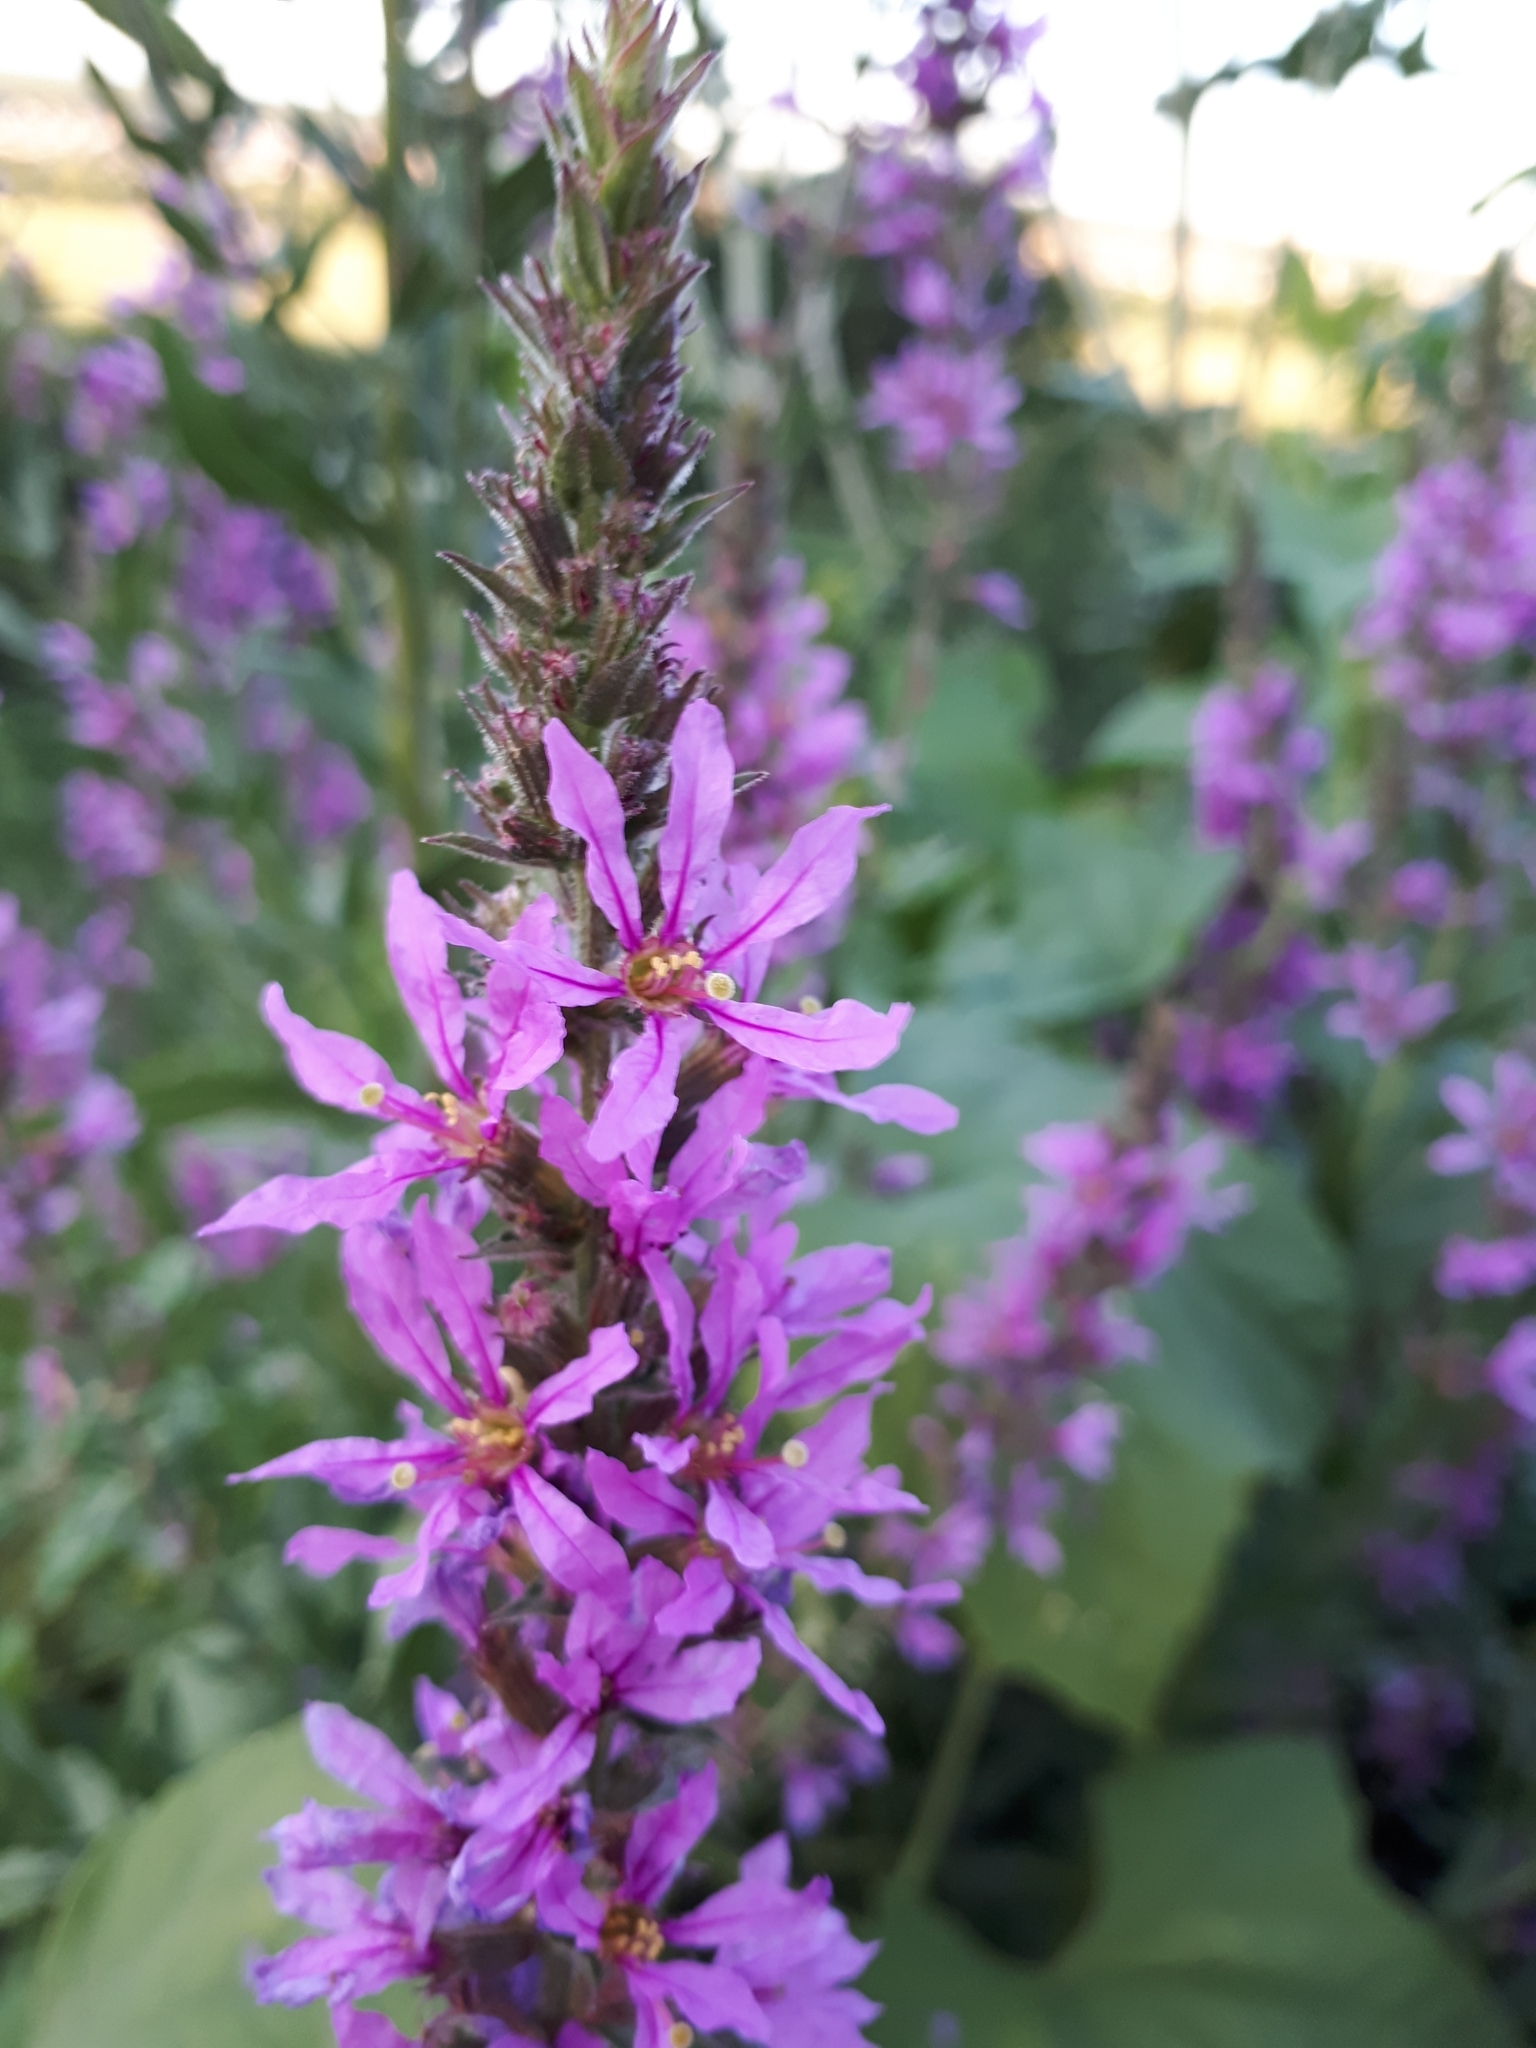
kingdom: Plantae
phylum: Tracheophyta
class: Magnoliopsida
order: Myrtales
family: Lythraceae
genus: Lythrum
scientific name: Lythrum salicaria
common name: Purple loosestrife
